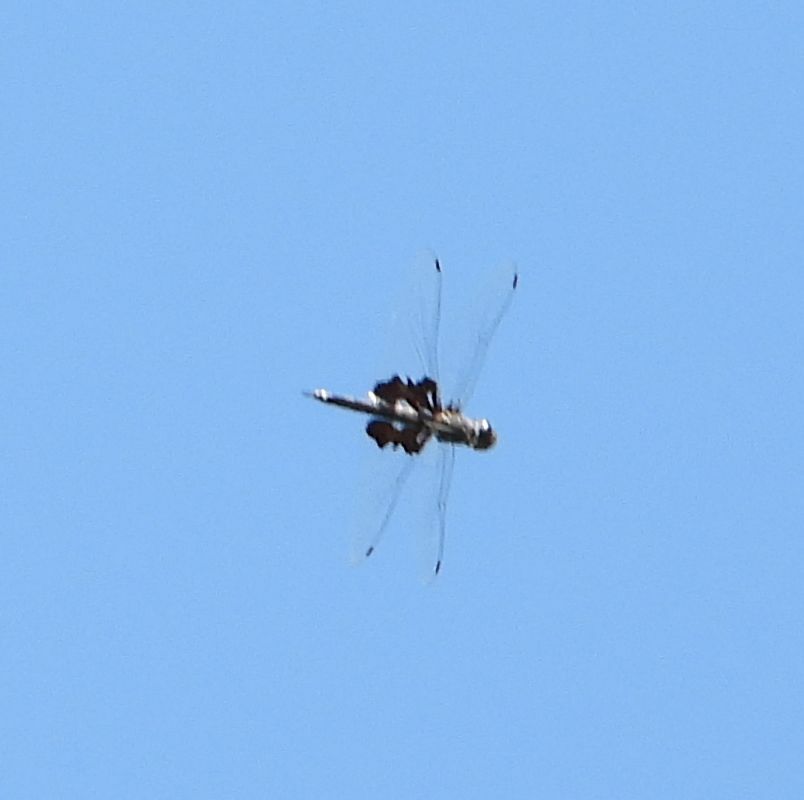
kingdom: Animalia
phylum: Arthropoda
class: Insecta
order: Odonata
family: Libellulidae
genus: Tramea
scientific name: Tramea lacerata
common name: Black saddlebags
